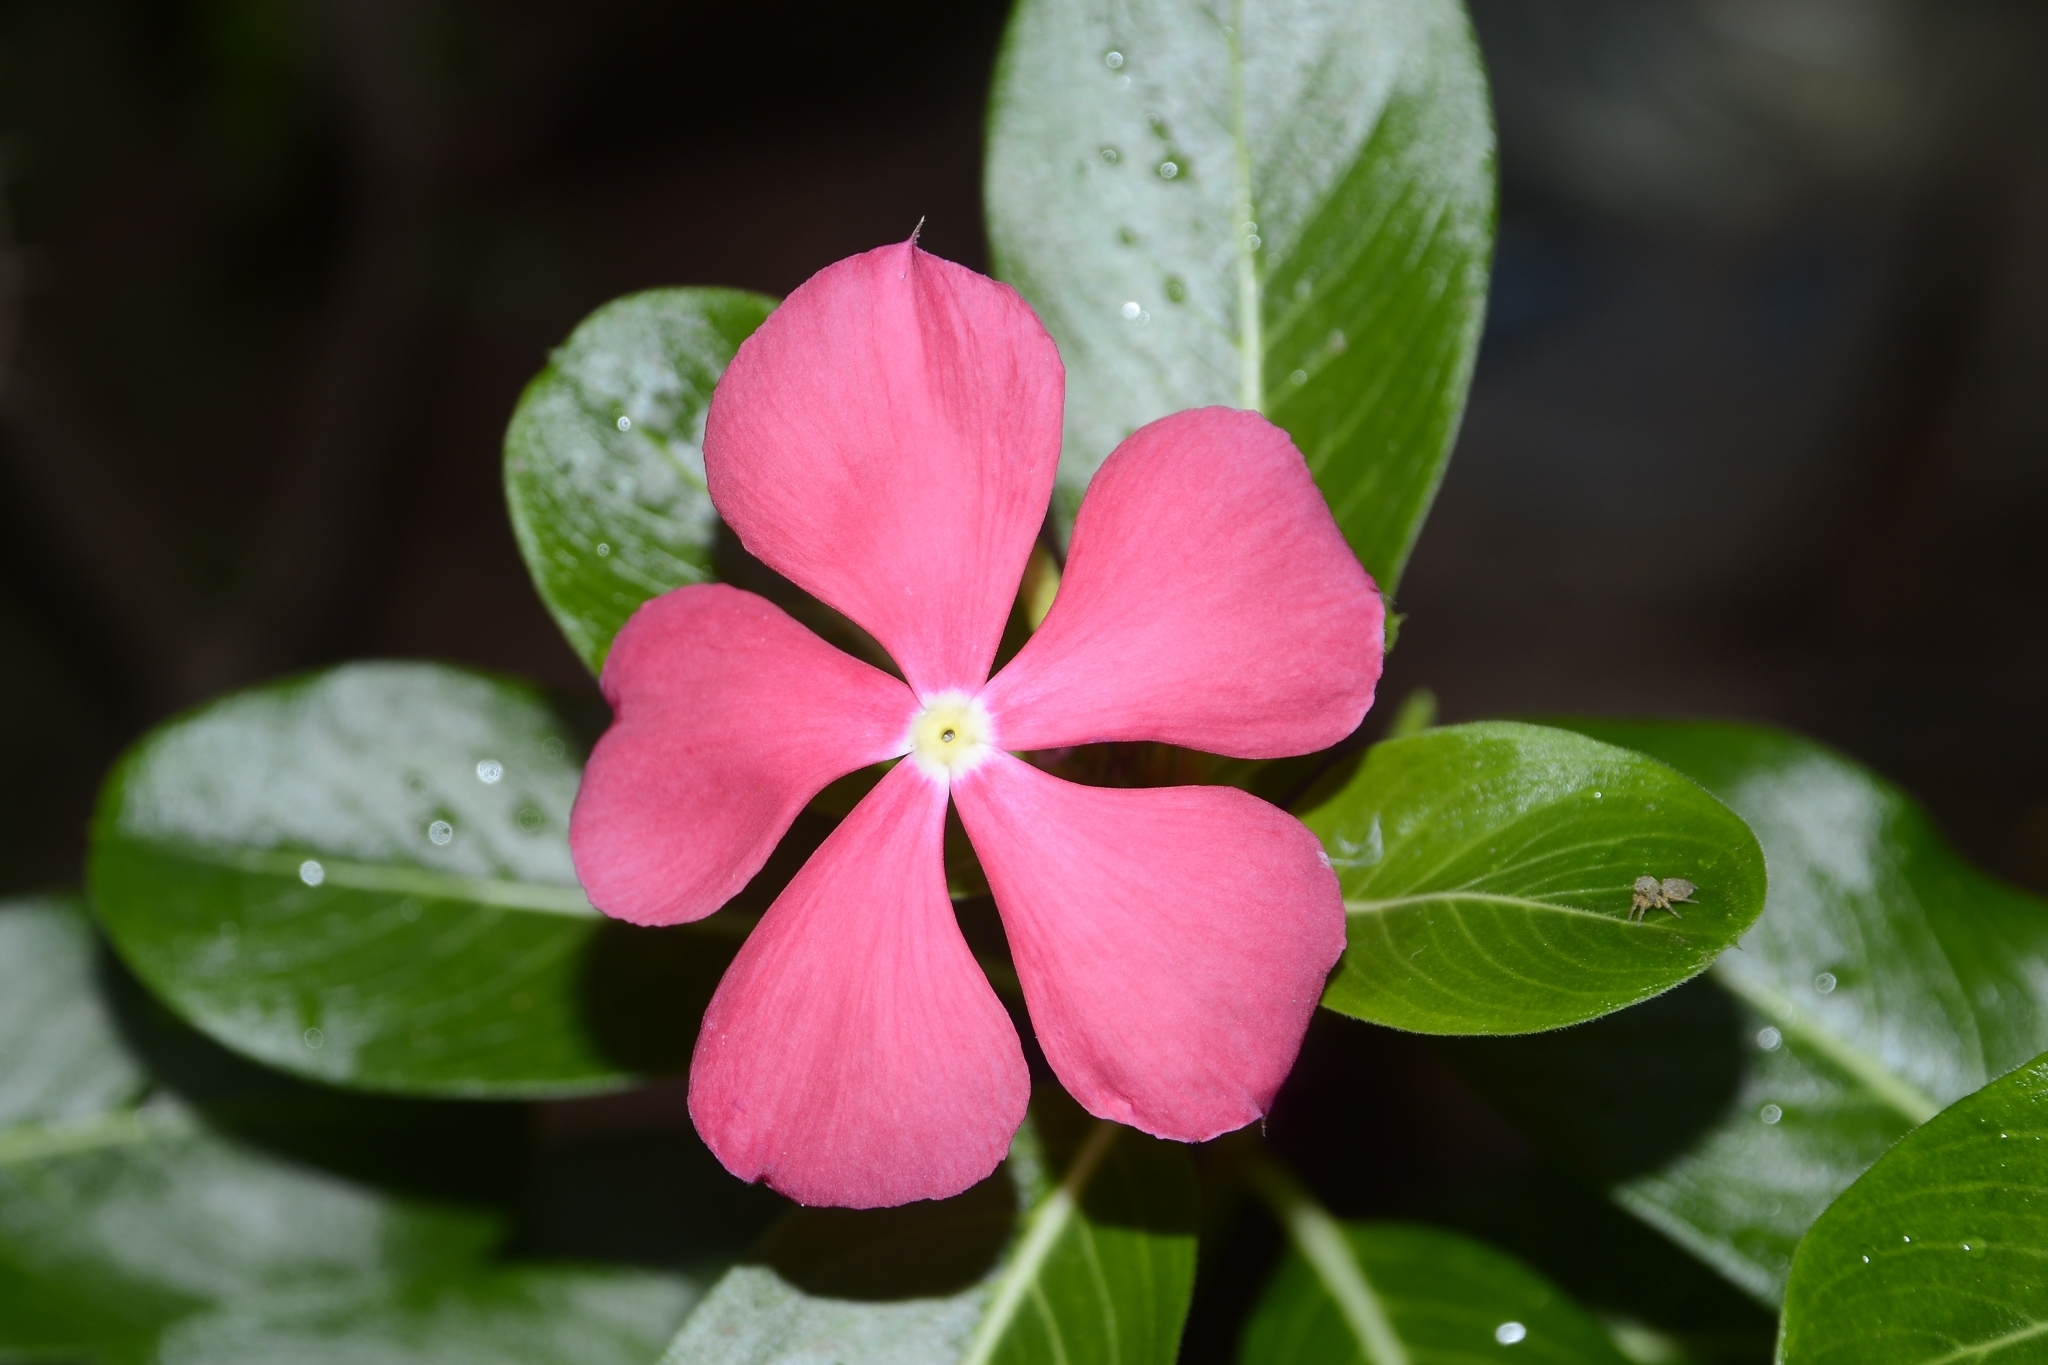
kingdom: Plantae
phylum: Tracheophyta
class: Magnoliopsida
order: Gentianales
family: Apocynaceae
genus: Catharanthus
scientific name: Catharanthus roseus
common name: Madagascar periwinkle
